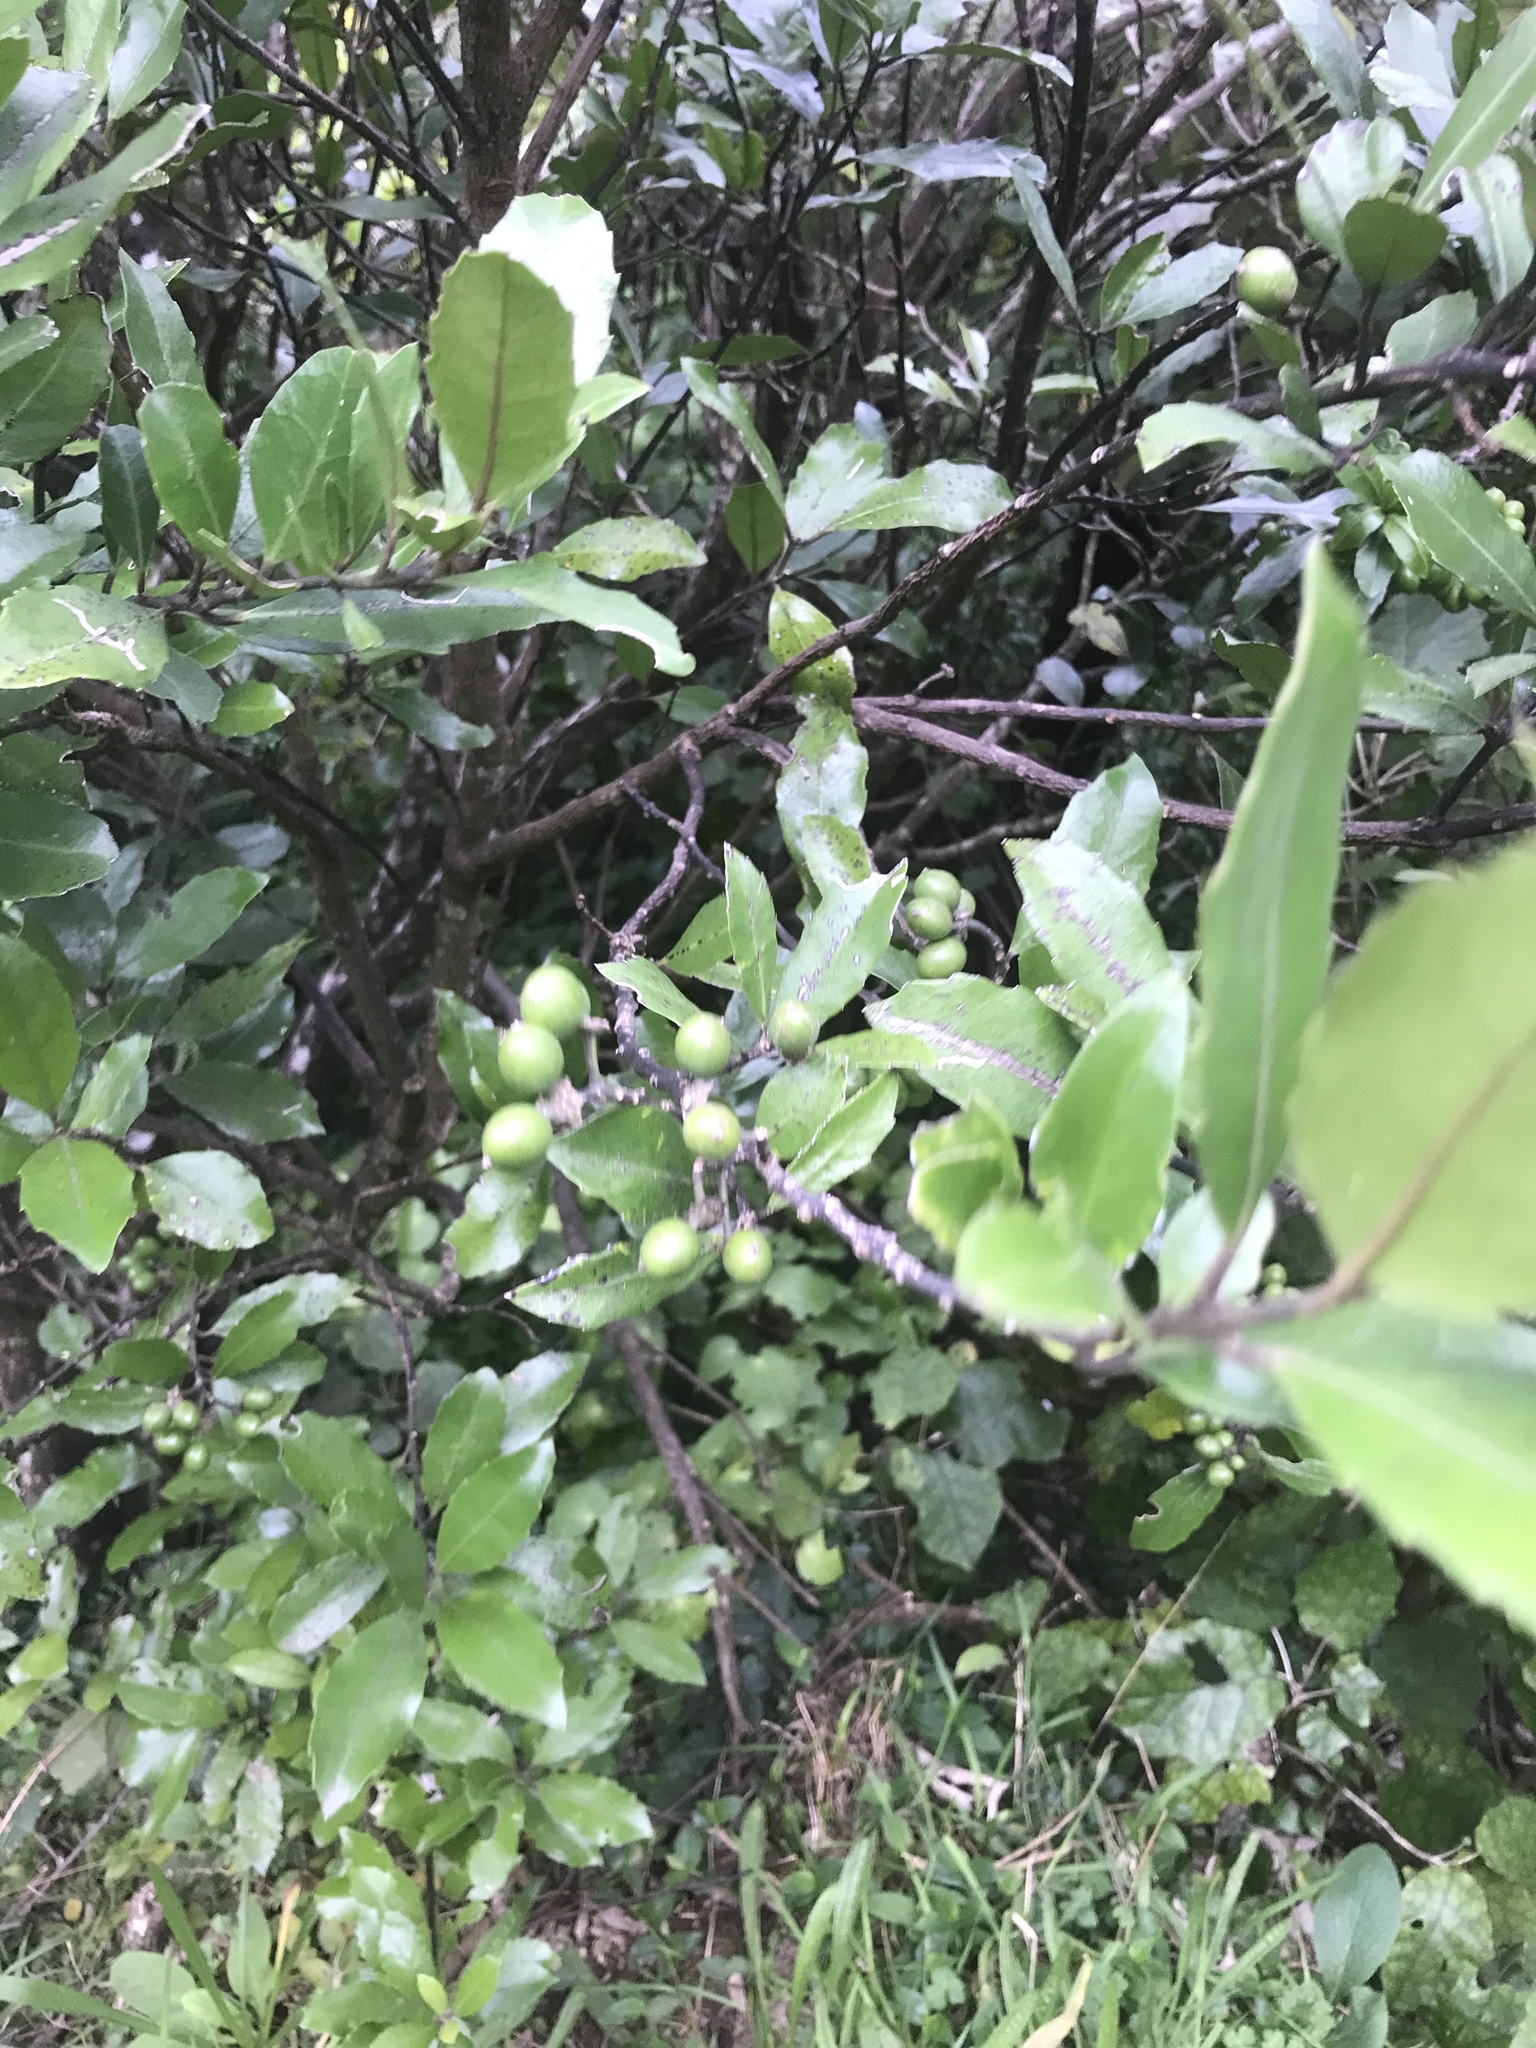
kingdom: Plantae
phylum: Tracheophyta
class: Magnoliopsida
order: Apiales
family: Pennantiaceae
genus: Pennantia
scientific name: Pennantia corymbosa
